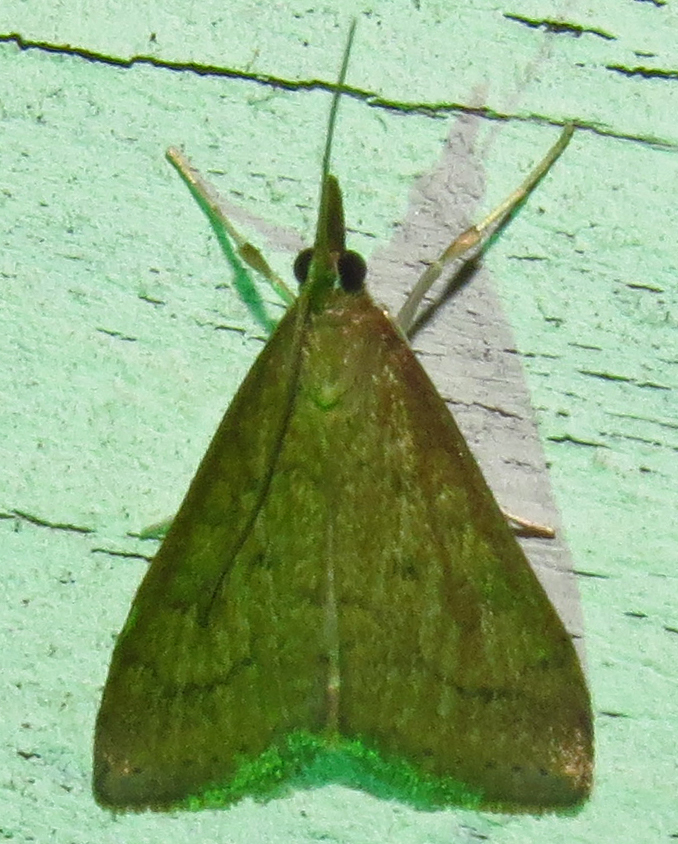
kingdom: Animalia
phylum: Arthropoda
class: Insecta
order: Lepidoptera
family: Crambidae
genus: Udea
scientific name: Udea rubigalis
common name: Celery leaftier moth
